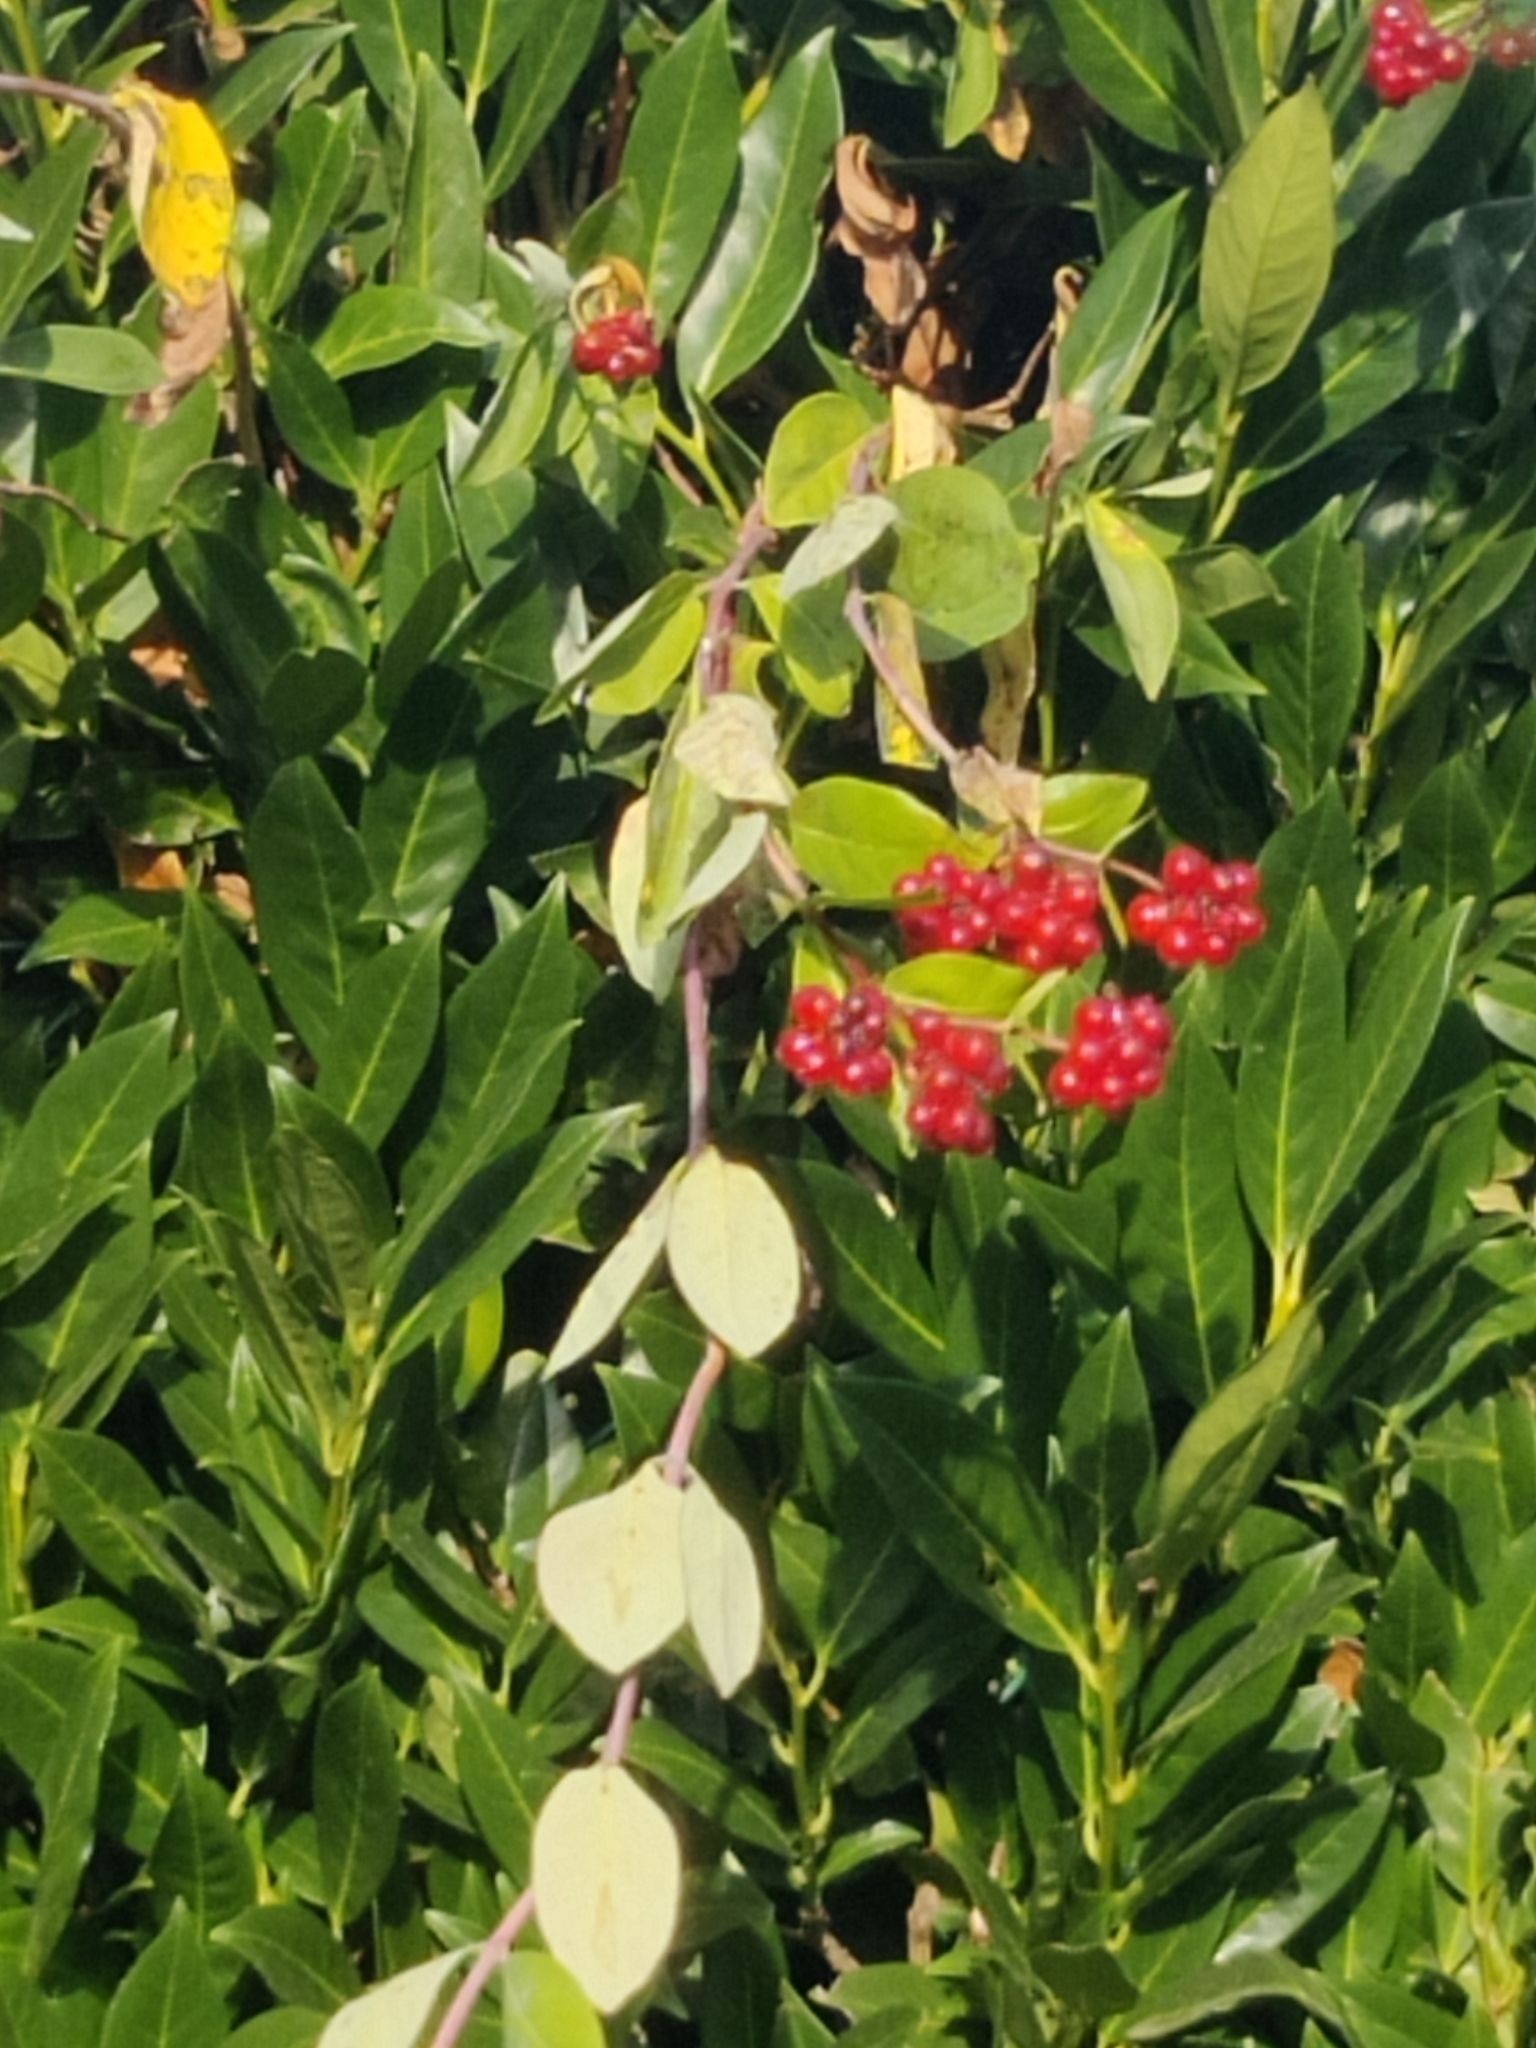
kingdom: Plantae
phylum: Tracheophyta
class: Magnoliopsida
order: Dipsacales
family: Caprifoliaceae
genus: Lonicera
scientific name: Lonicera periclymenum
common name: European honeysuckle
